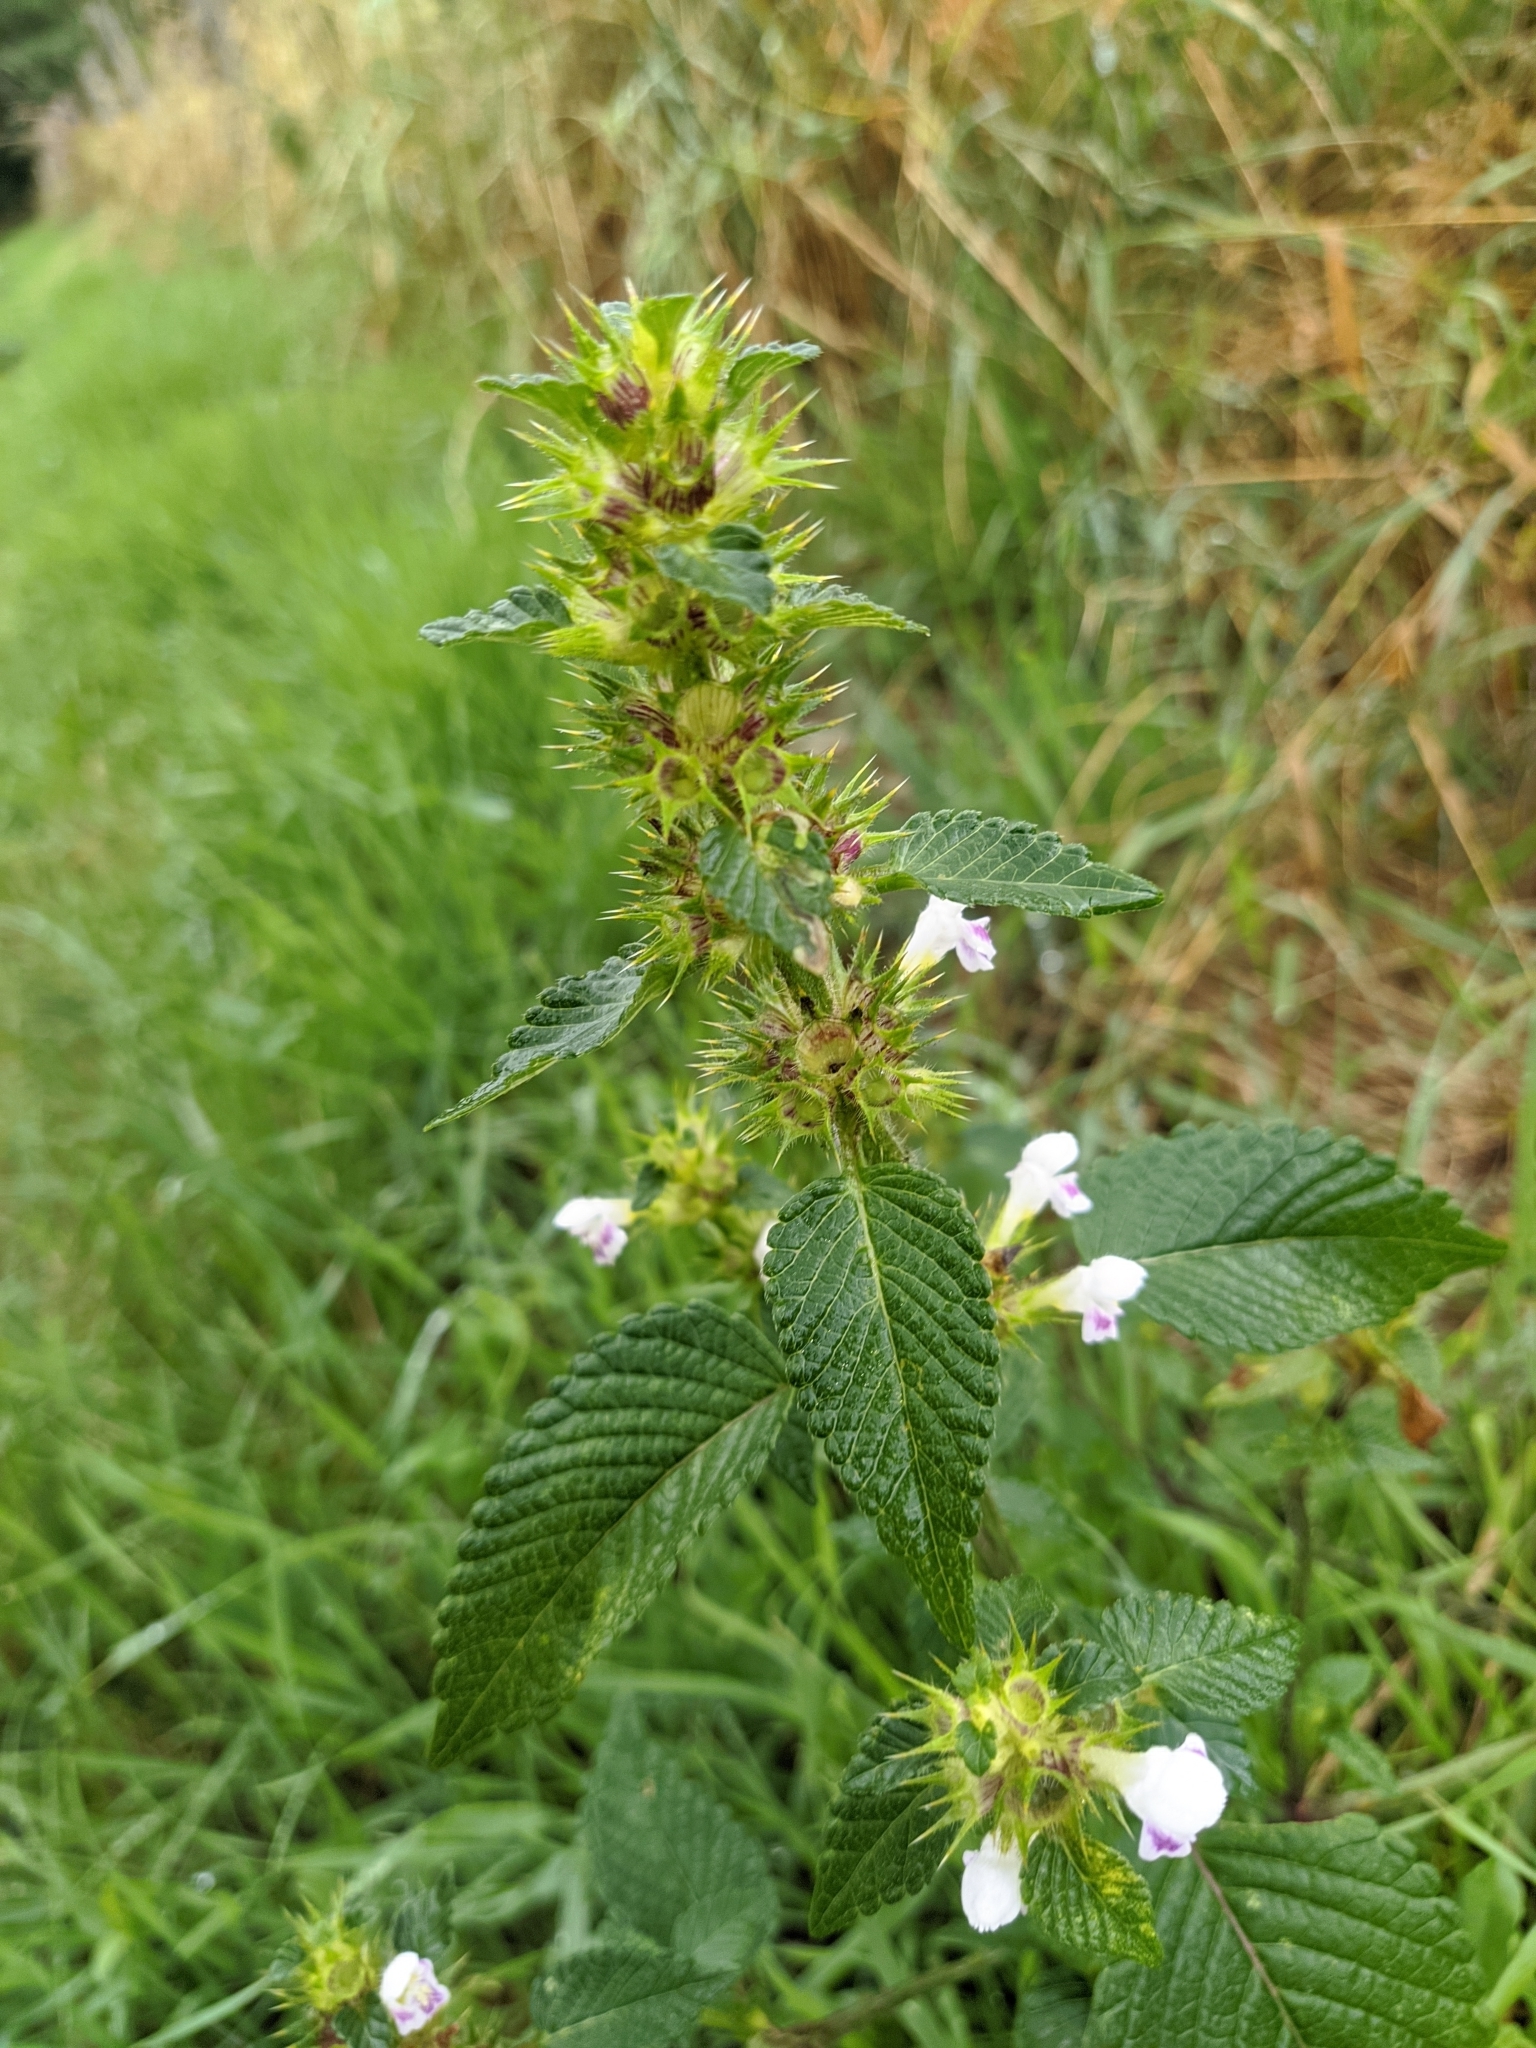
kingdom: Plantae
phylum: Tracheophyta
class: Magnoliopsida
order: Lamiales
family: Lamiaceae
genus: Galeopsis
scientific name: Galeopsis tetrahit
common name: Common hemp-nettle
